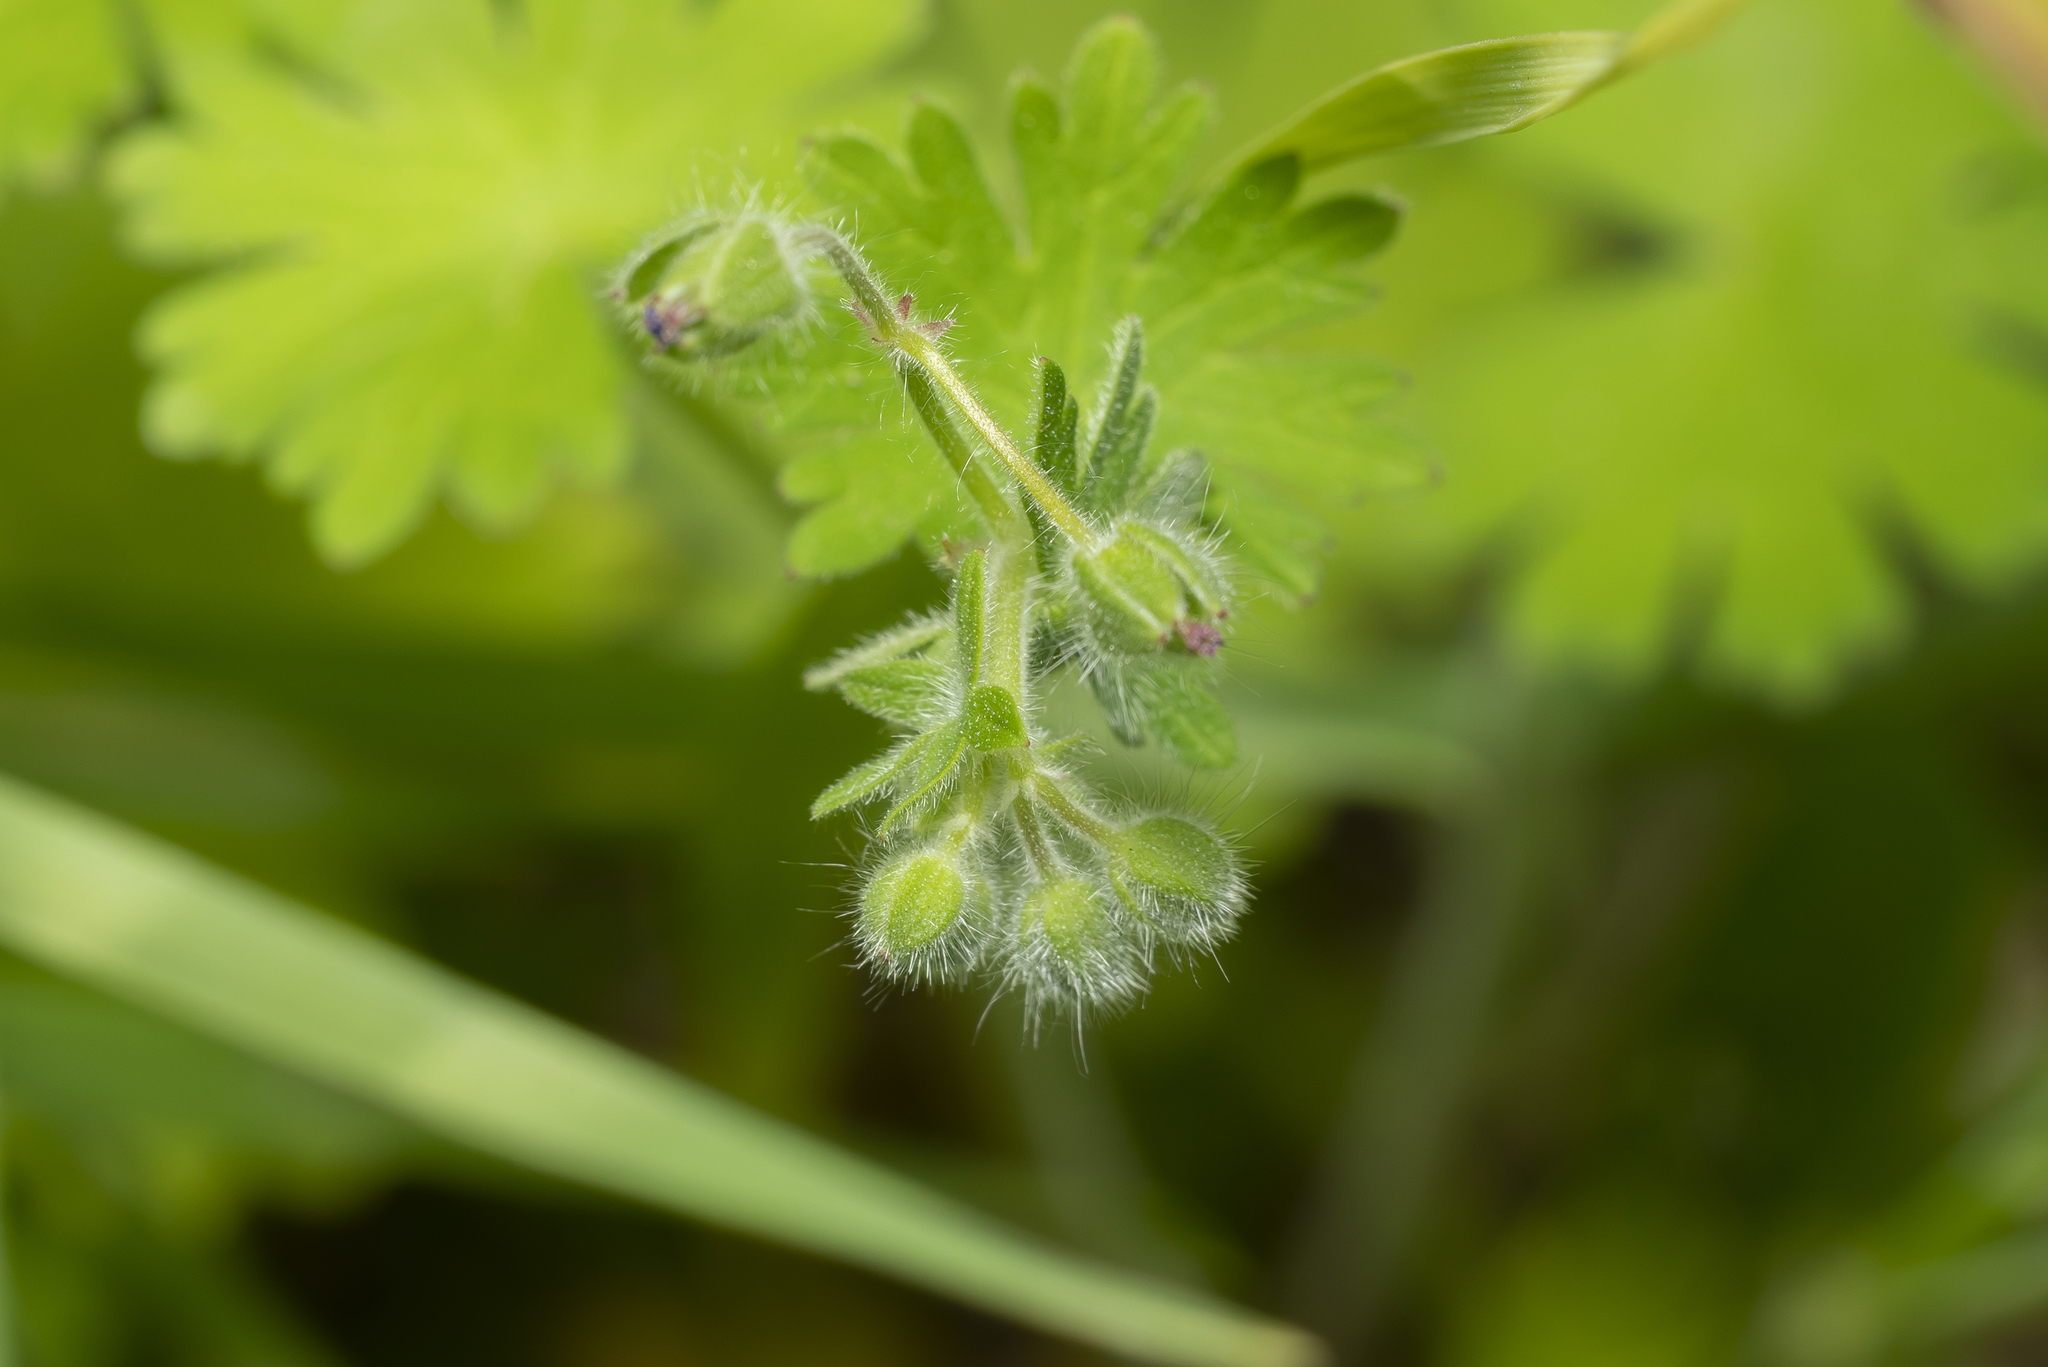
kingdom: Plantae
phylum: Tracheophyta
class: Magnoliopsida
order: Geraniales
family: Geraniaceae
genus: Geranium
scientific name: Geranium molle
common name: Dove's-foot crane's-bill
